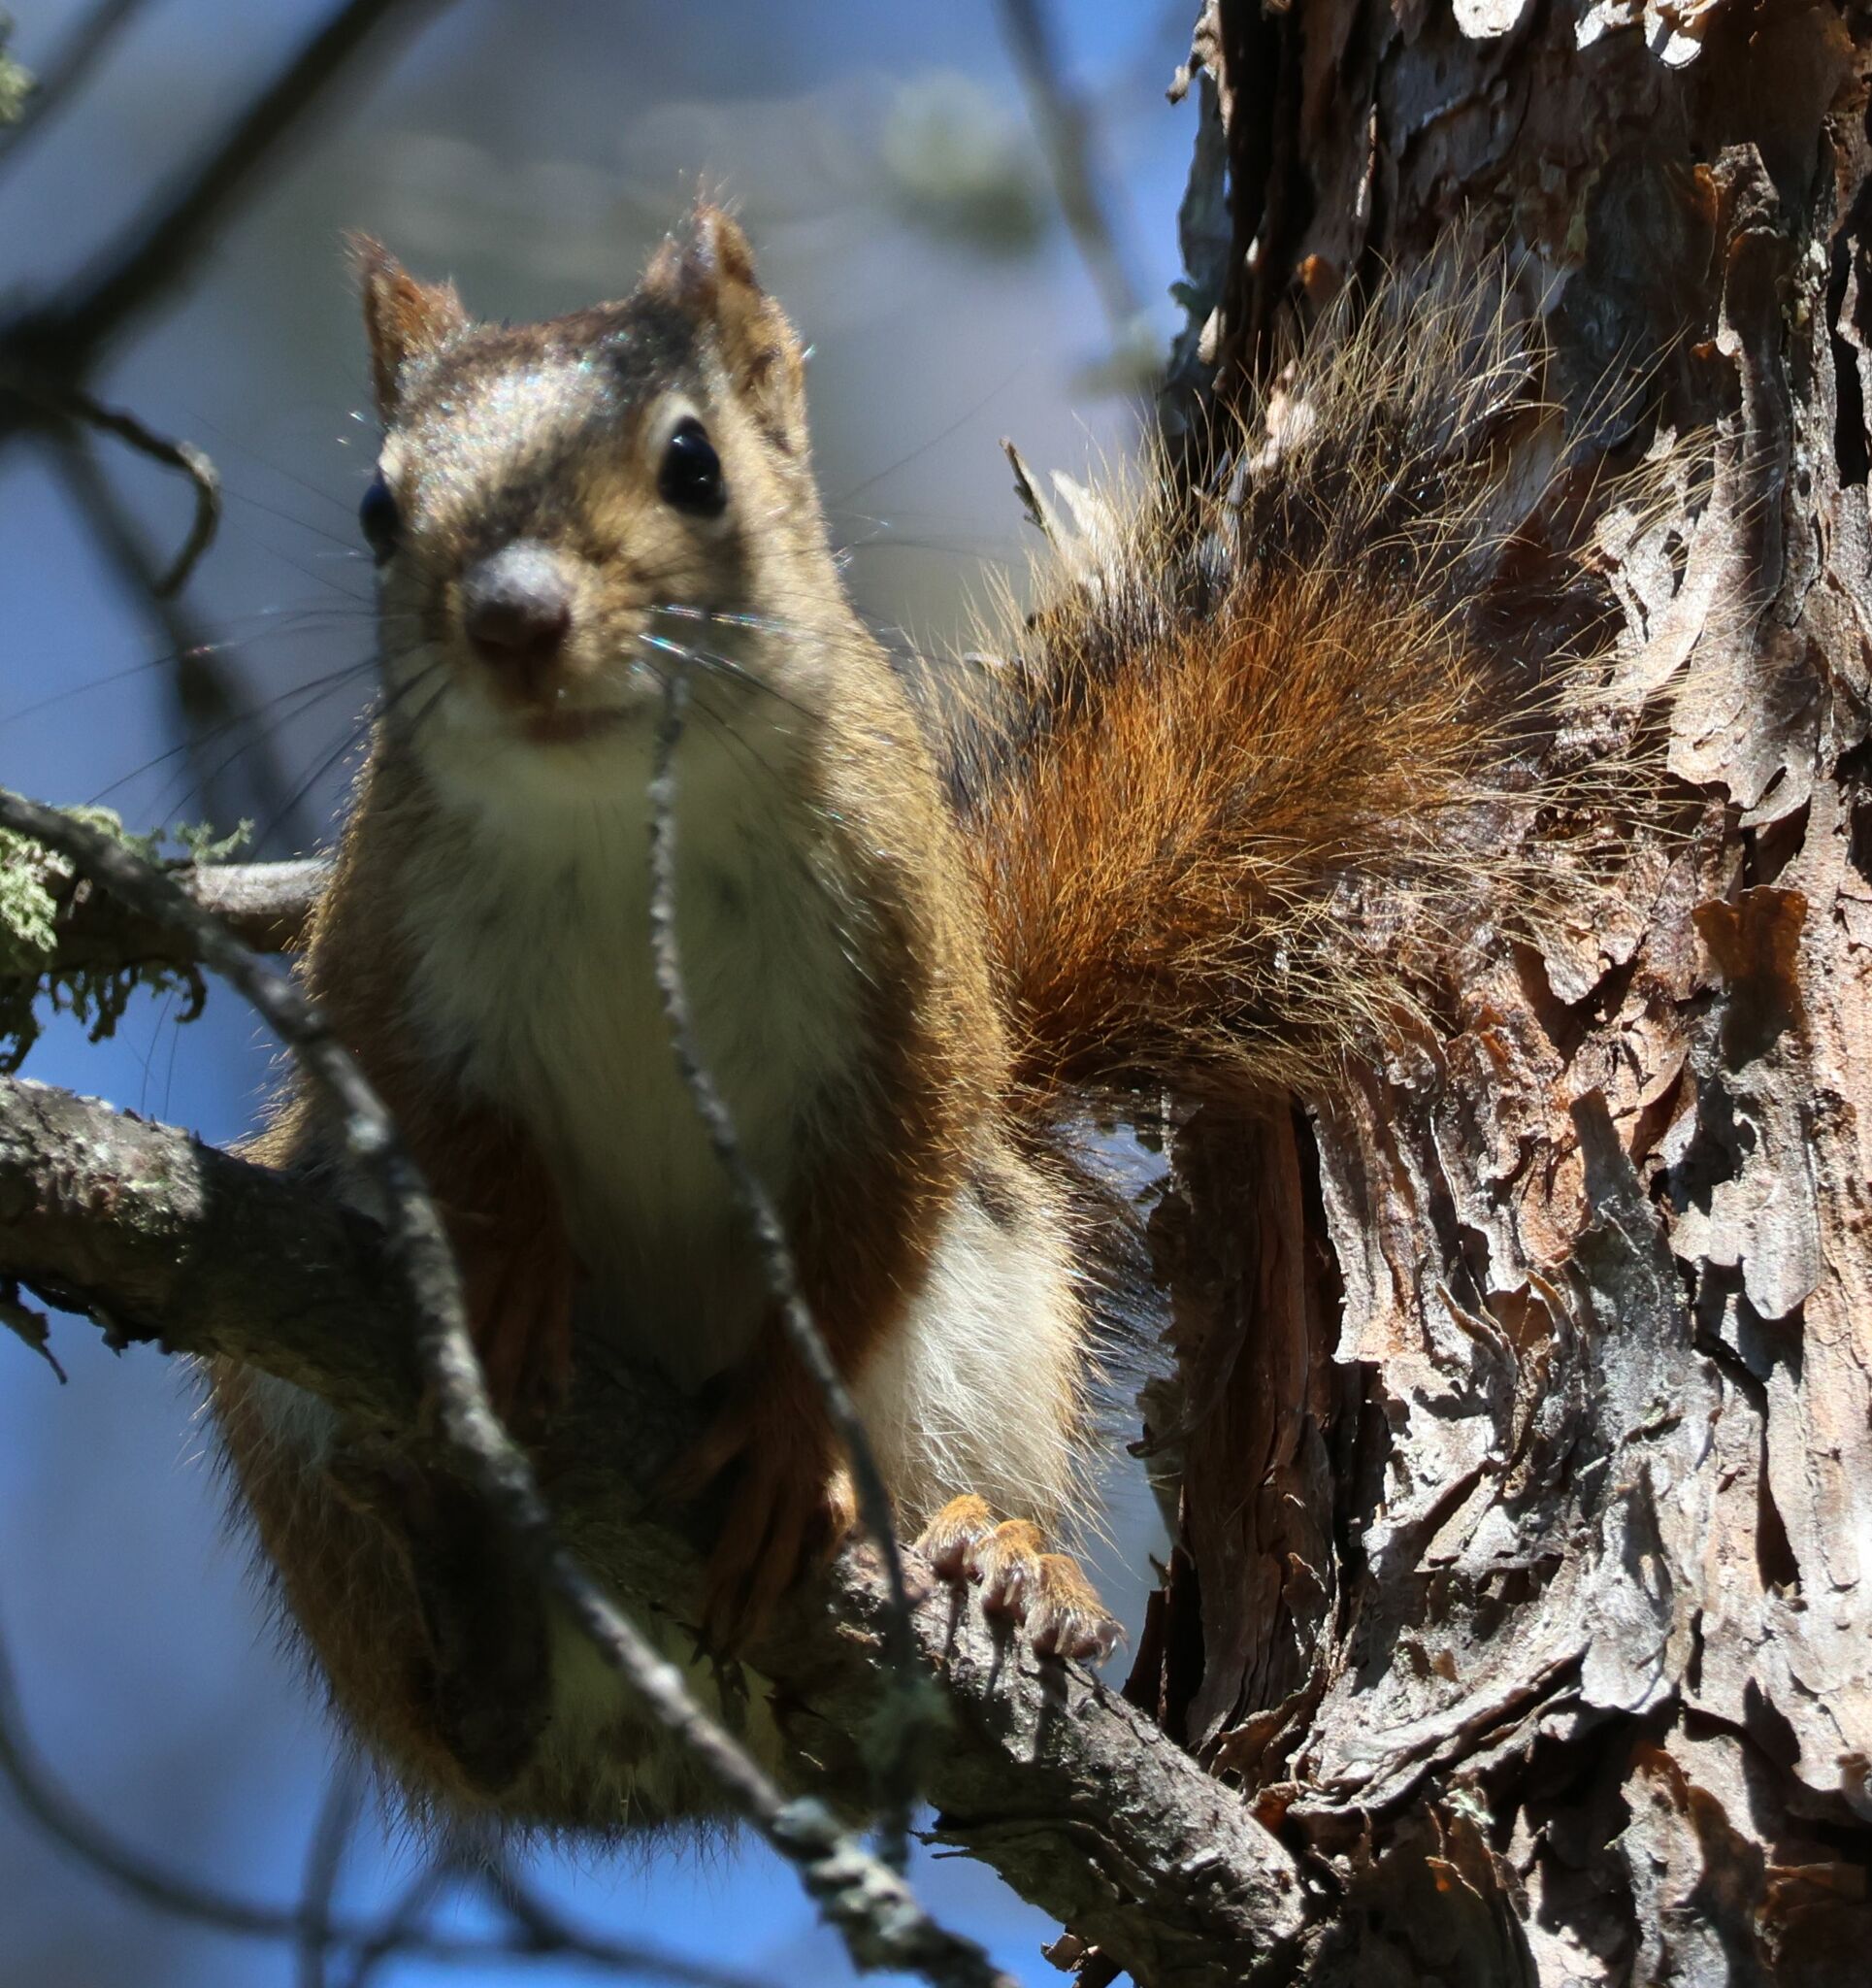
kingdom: Animalia
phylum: Chordata
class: Mammalia
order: Rodentia
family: Sciuridae
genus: Tamiasciurus
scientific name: Tamiasciurus hudsonicus
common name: Red squirrel
